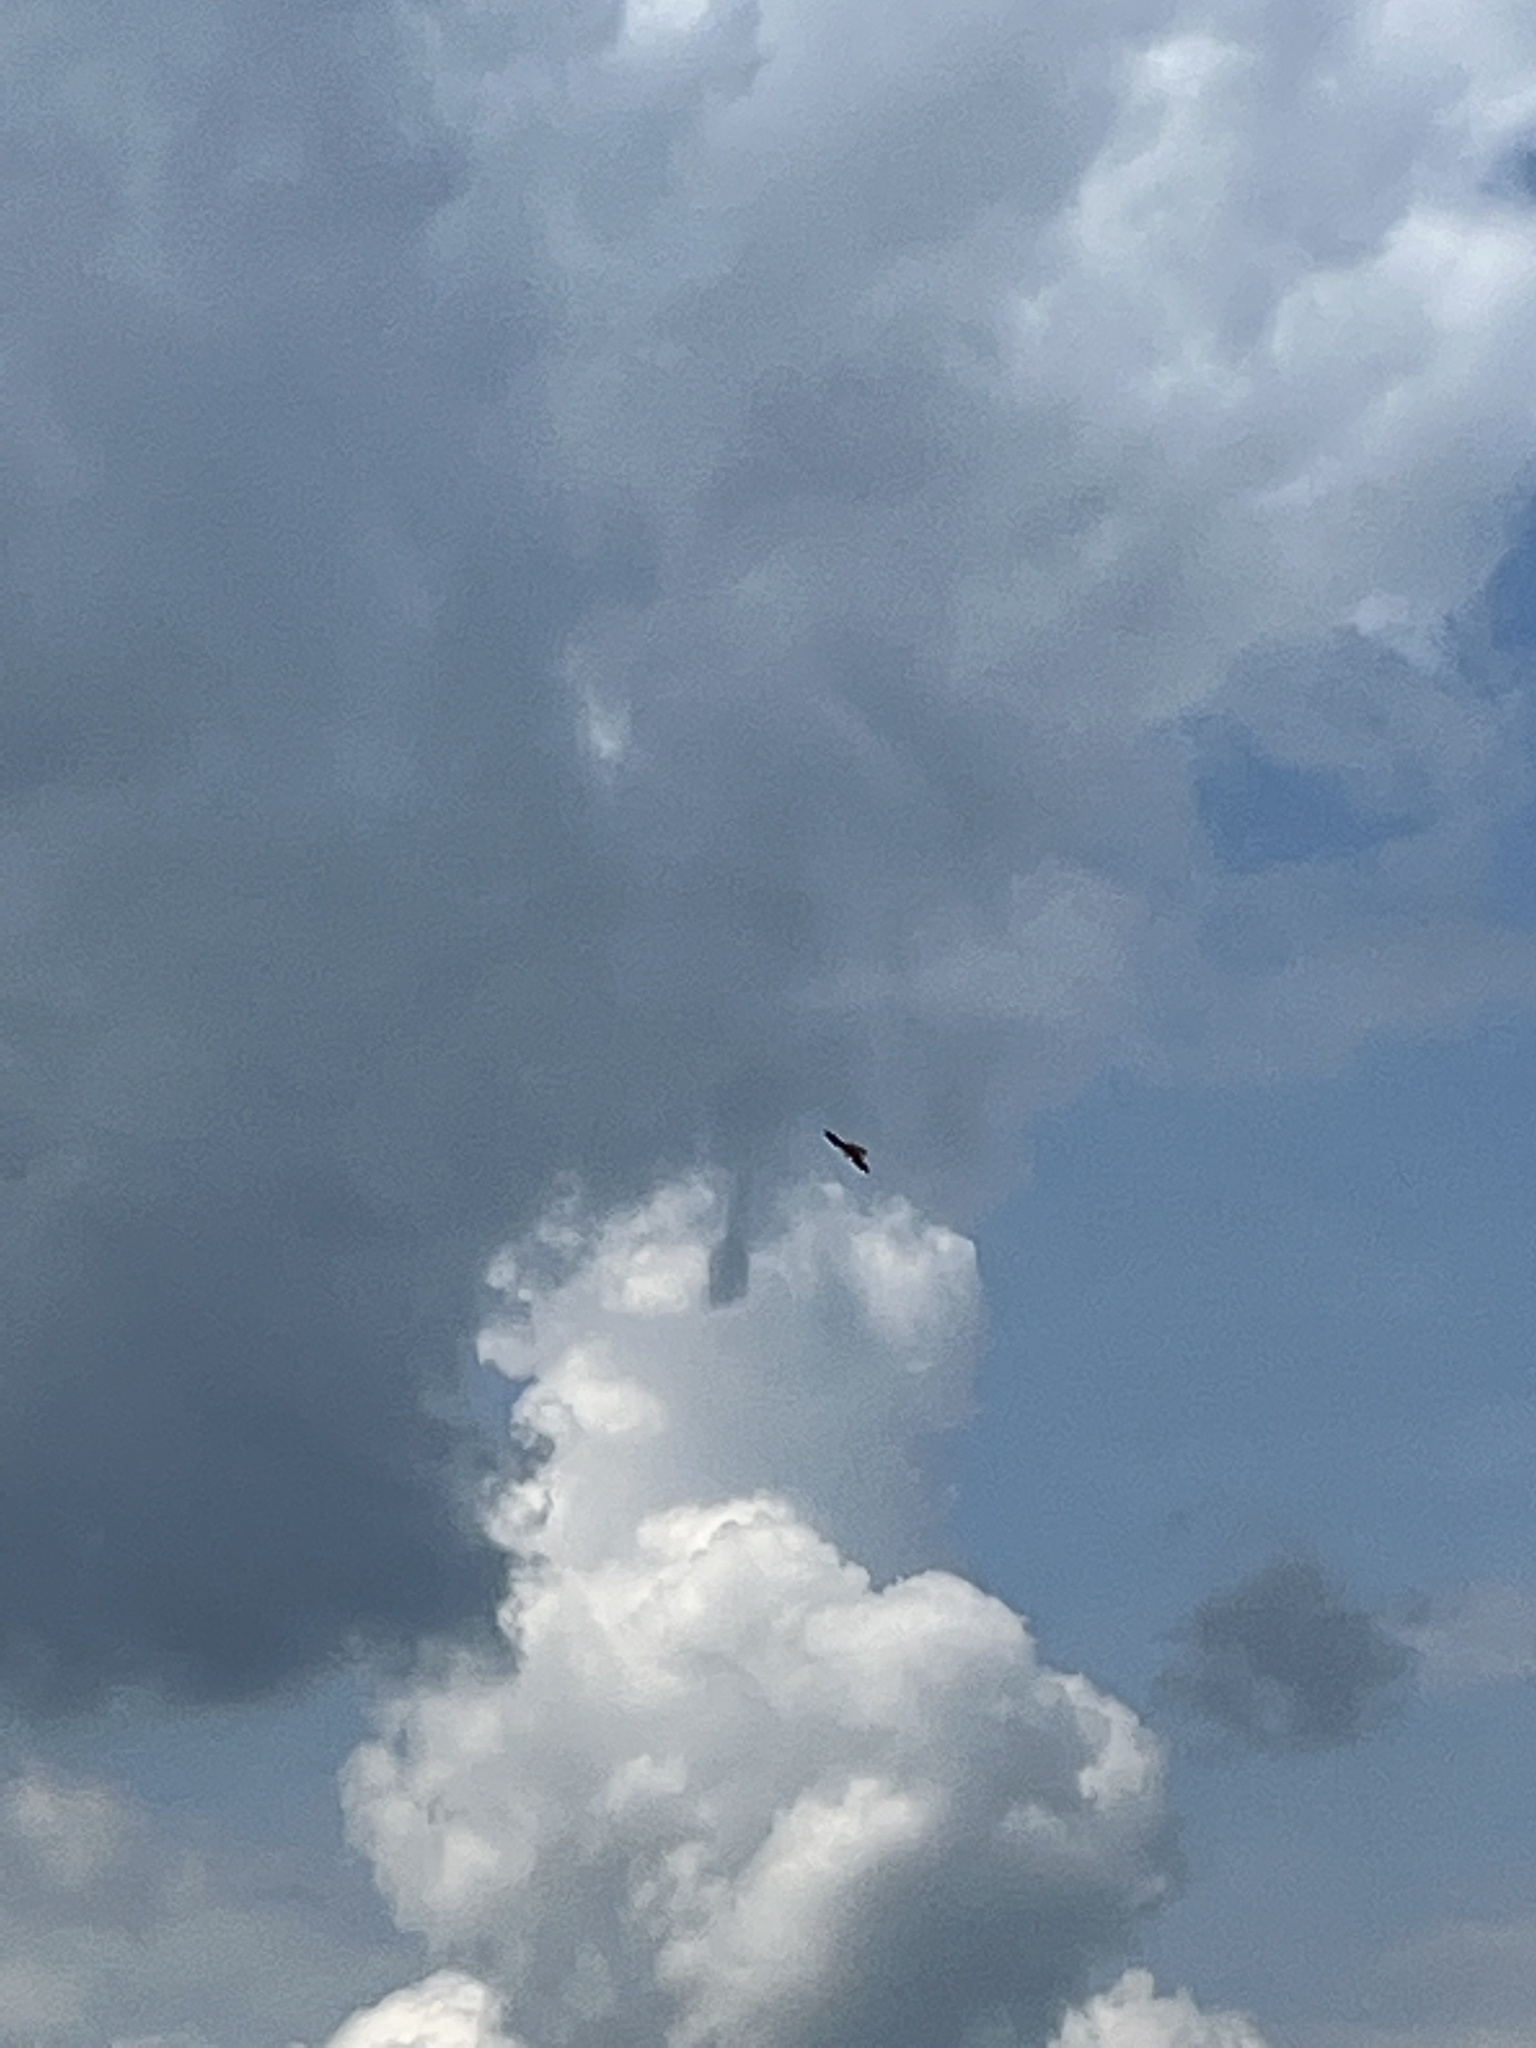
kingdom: Animalia
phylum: Chordata
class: Aves
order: Falconiformes
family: Falconidae
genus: Falco
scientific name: Falco tinnunculus
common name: Common kestrel
